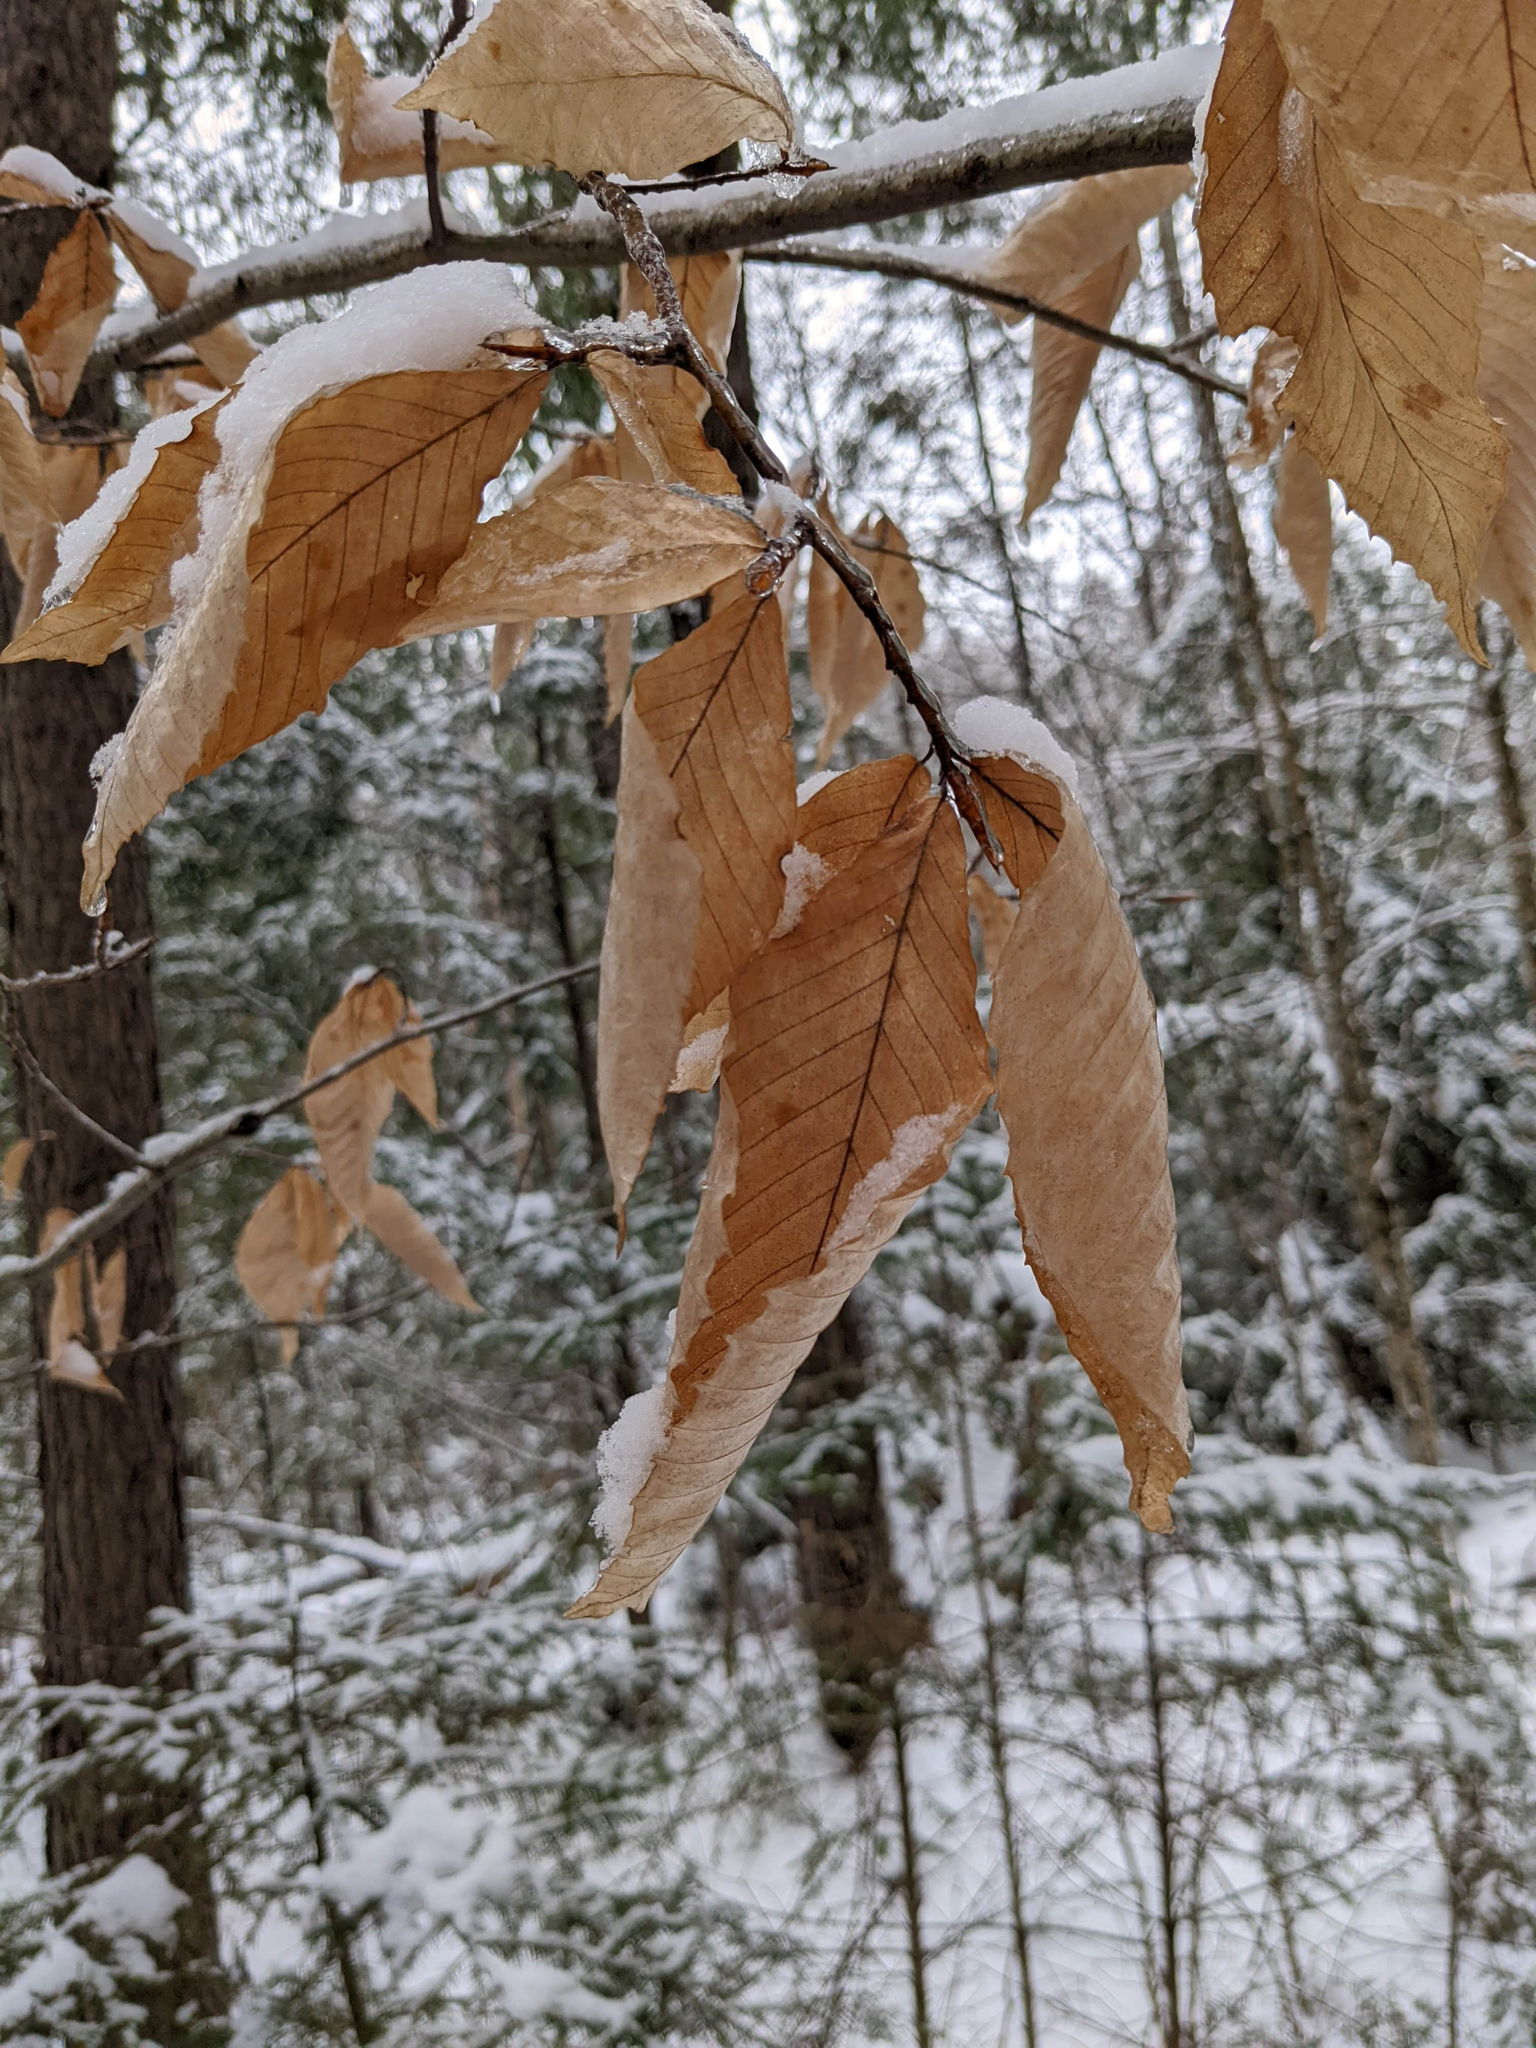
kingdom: Plantae
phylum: Tracheophyta
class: Magnoliopsida
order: Fagales
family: Fagaceae
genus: Fagus
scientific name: Fagus grandifolia
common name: American beech
